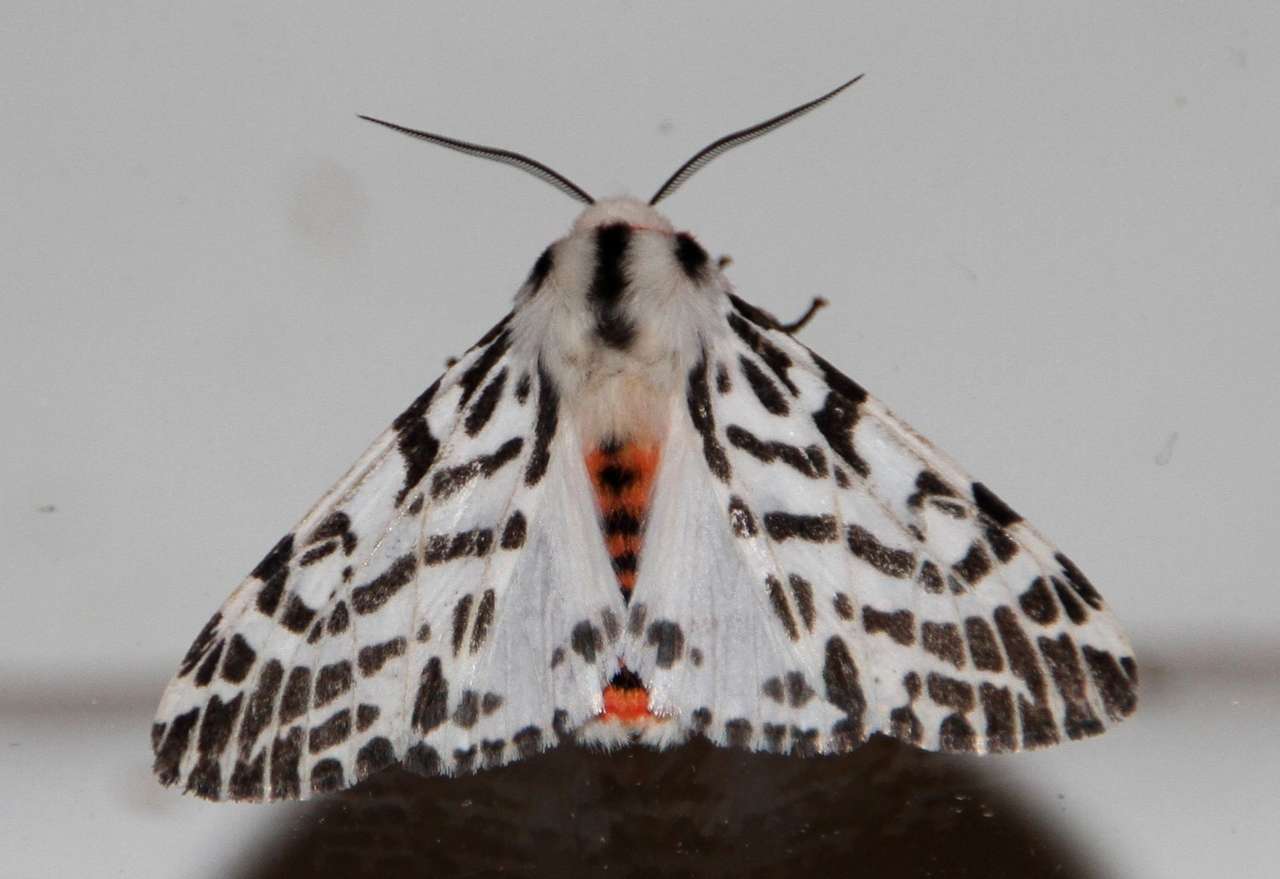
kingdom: Animalia
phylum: Arthropoda
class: Insecta
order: Lepidoptera
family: Erebidae
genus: Ardices
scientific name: Ardices glatignyi
